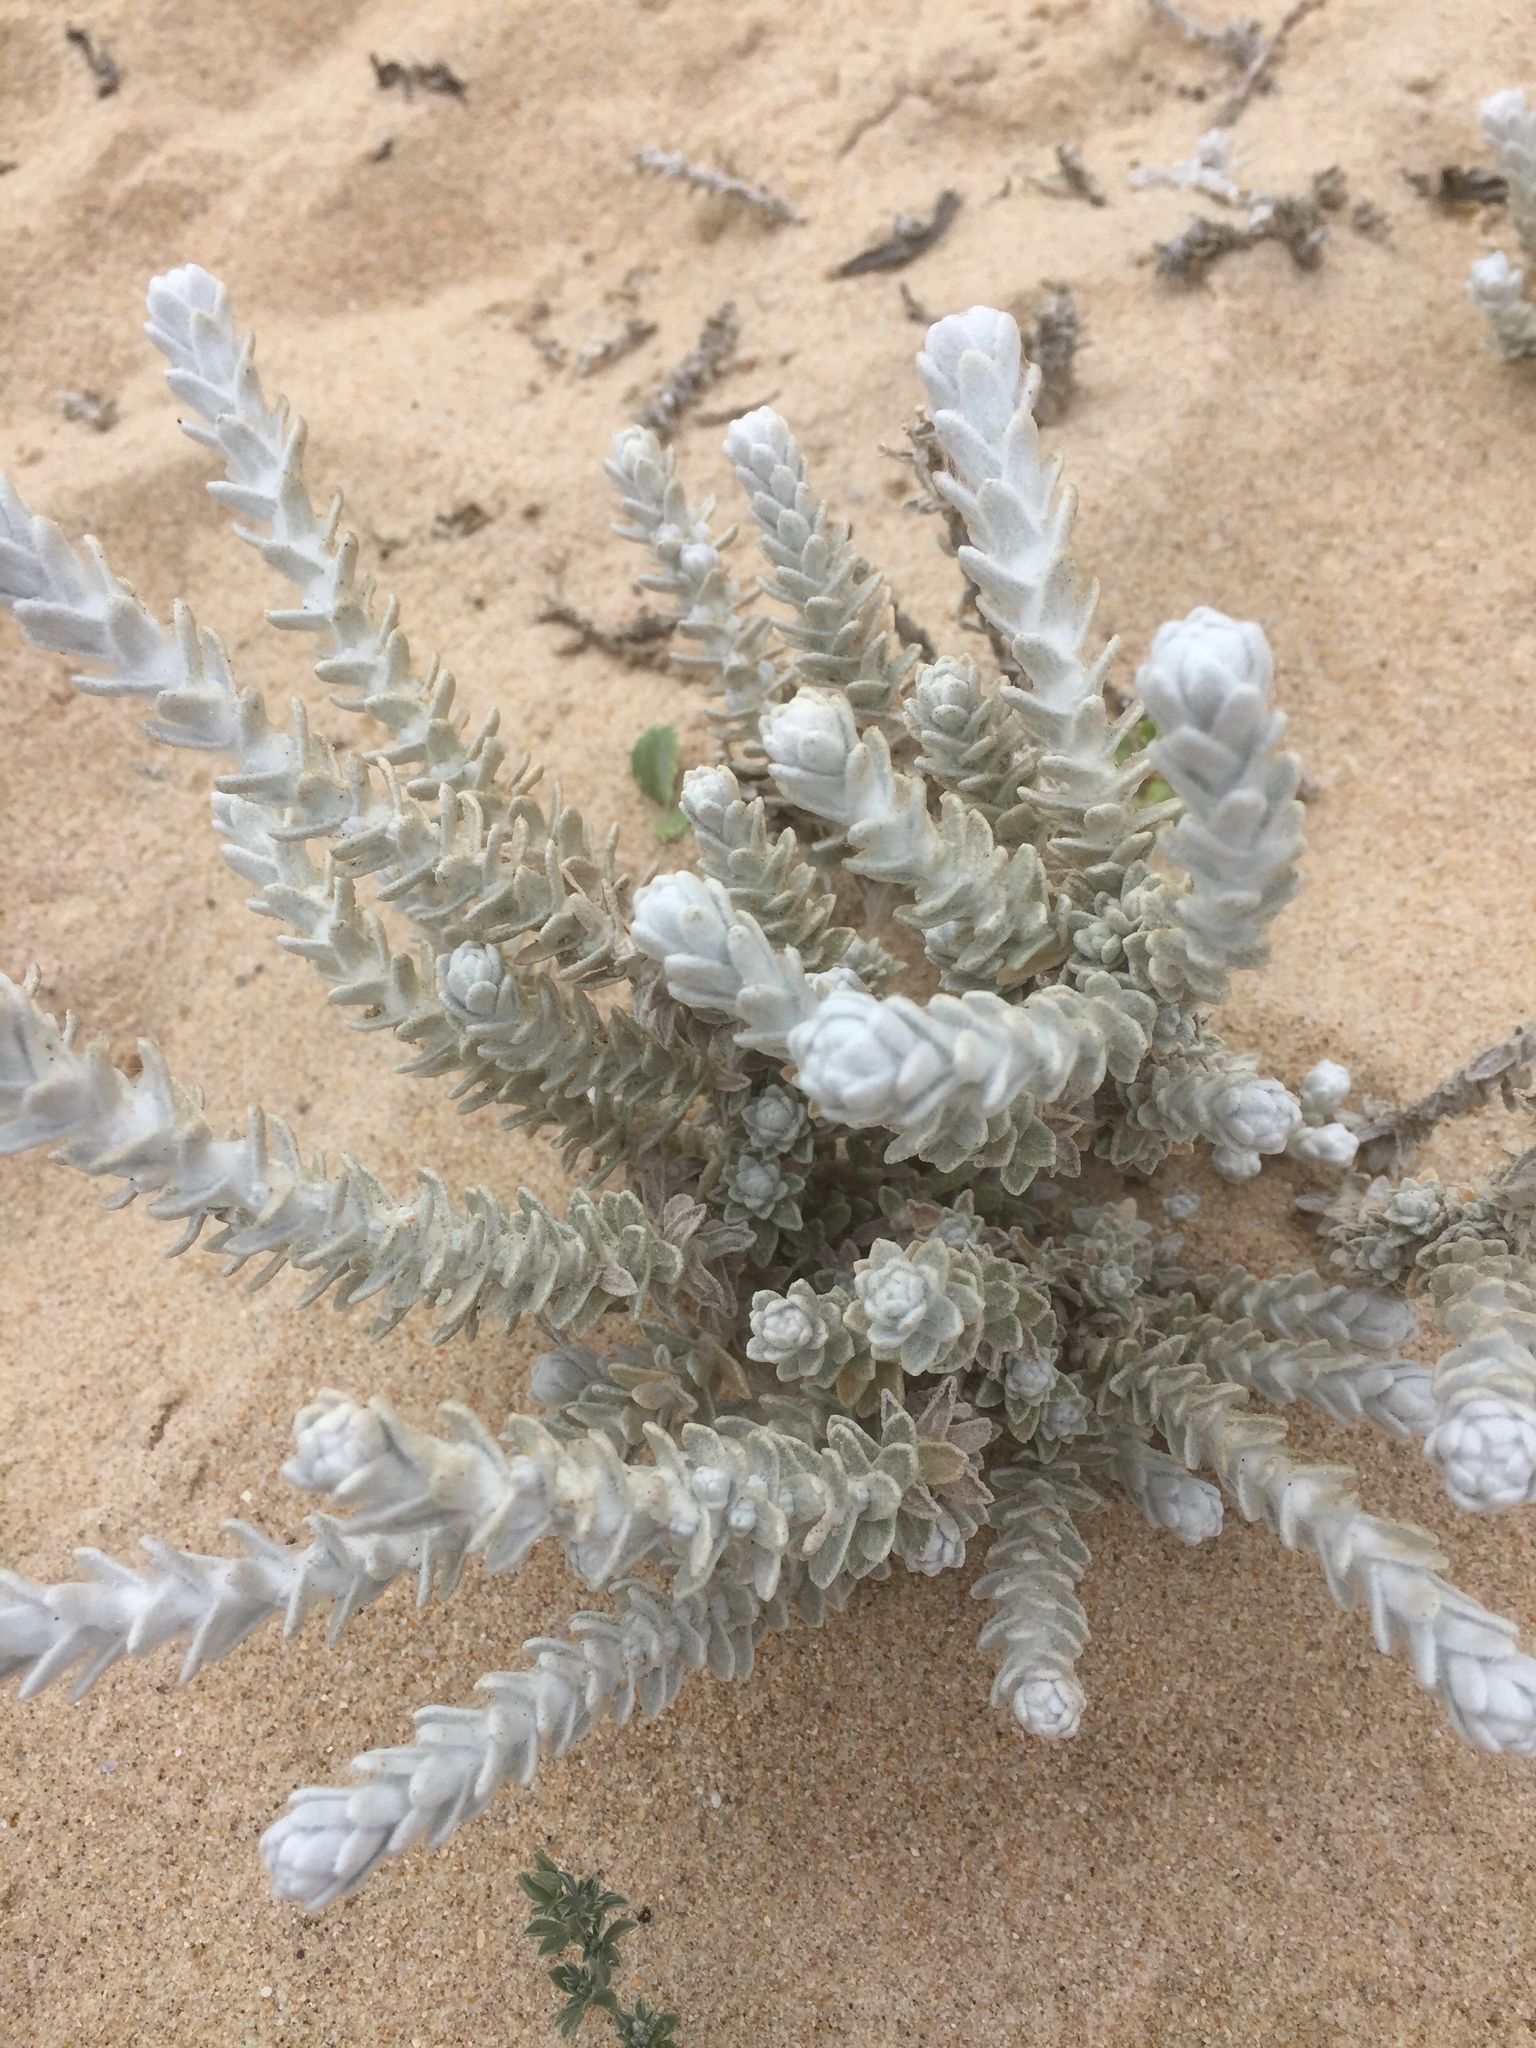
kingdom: Plantae
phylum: Tracheophyta
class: Magnoliopsida
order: Asterales
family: Asteraceae
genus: Achillea
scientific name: Achillea maritima
